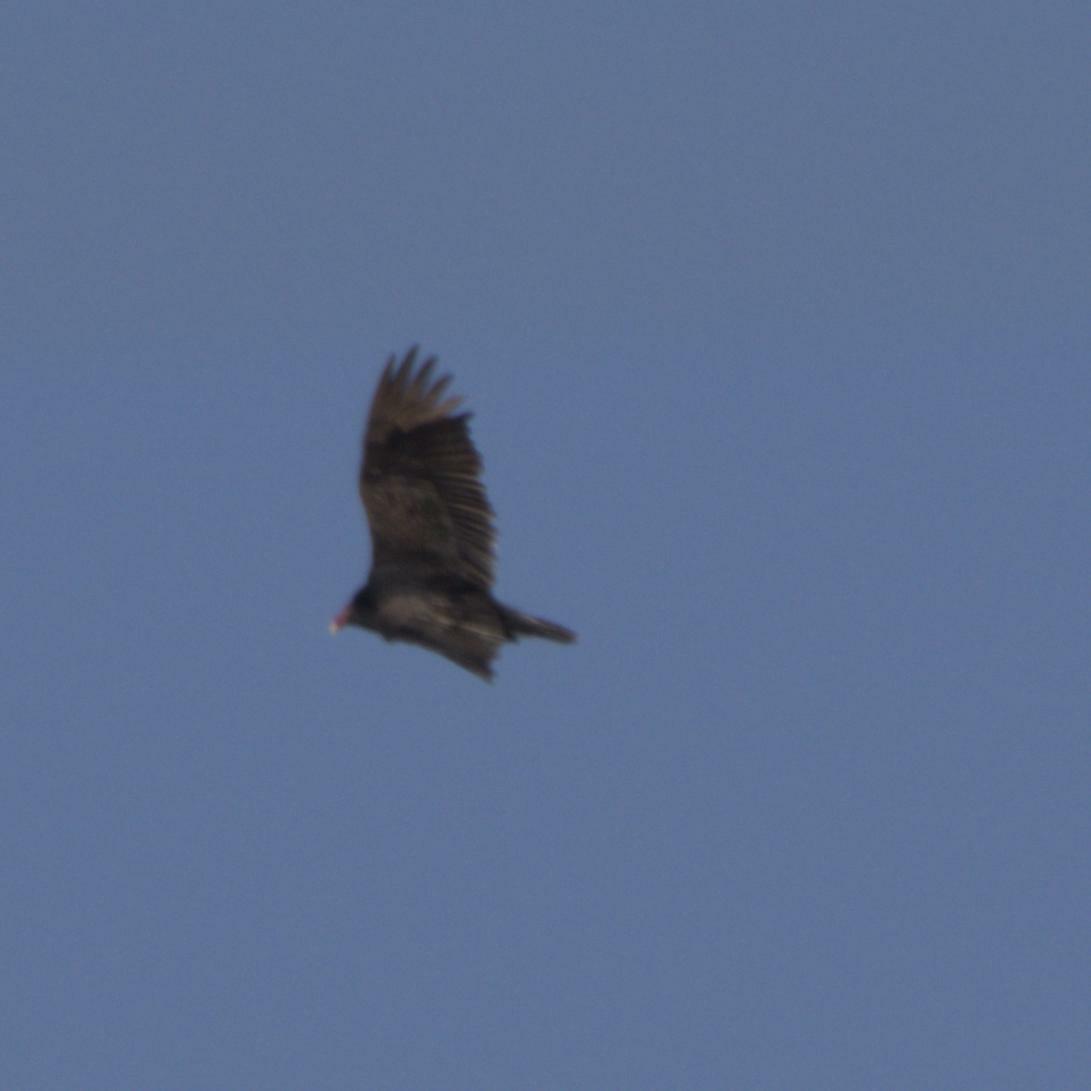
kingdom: Animalia
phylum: Chordata
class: Aves
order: Accipitriformes
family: Cathartidae
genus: Cathartes
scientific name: Cathartes aura
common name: Turkey vulture
